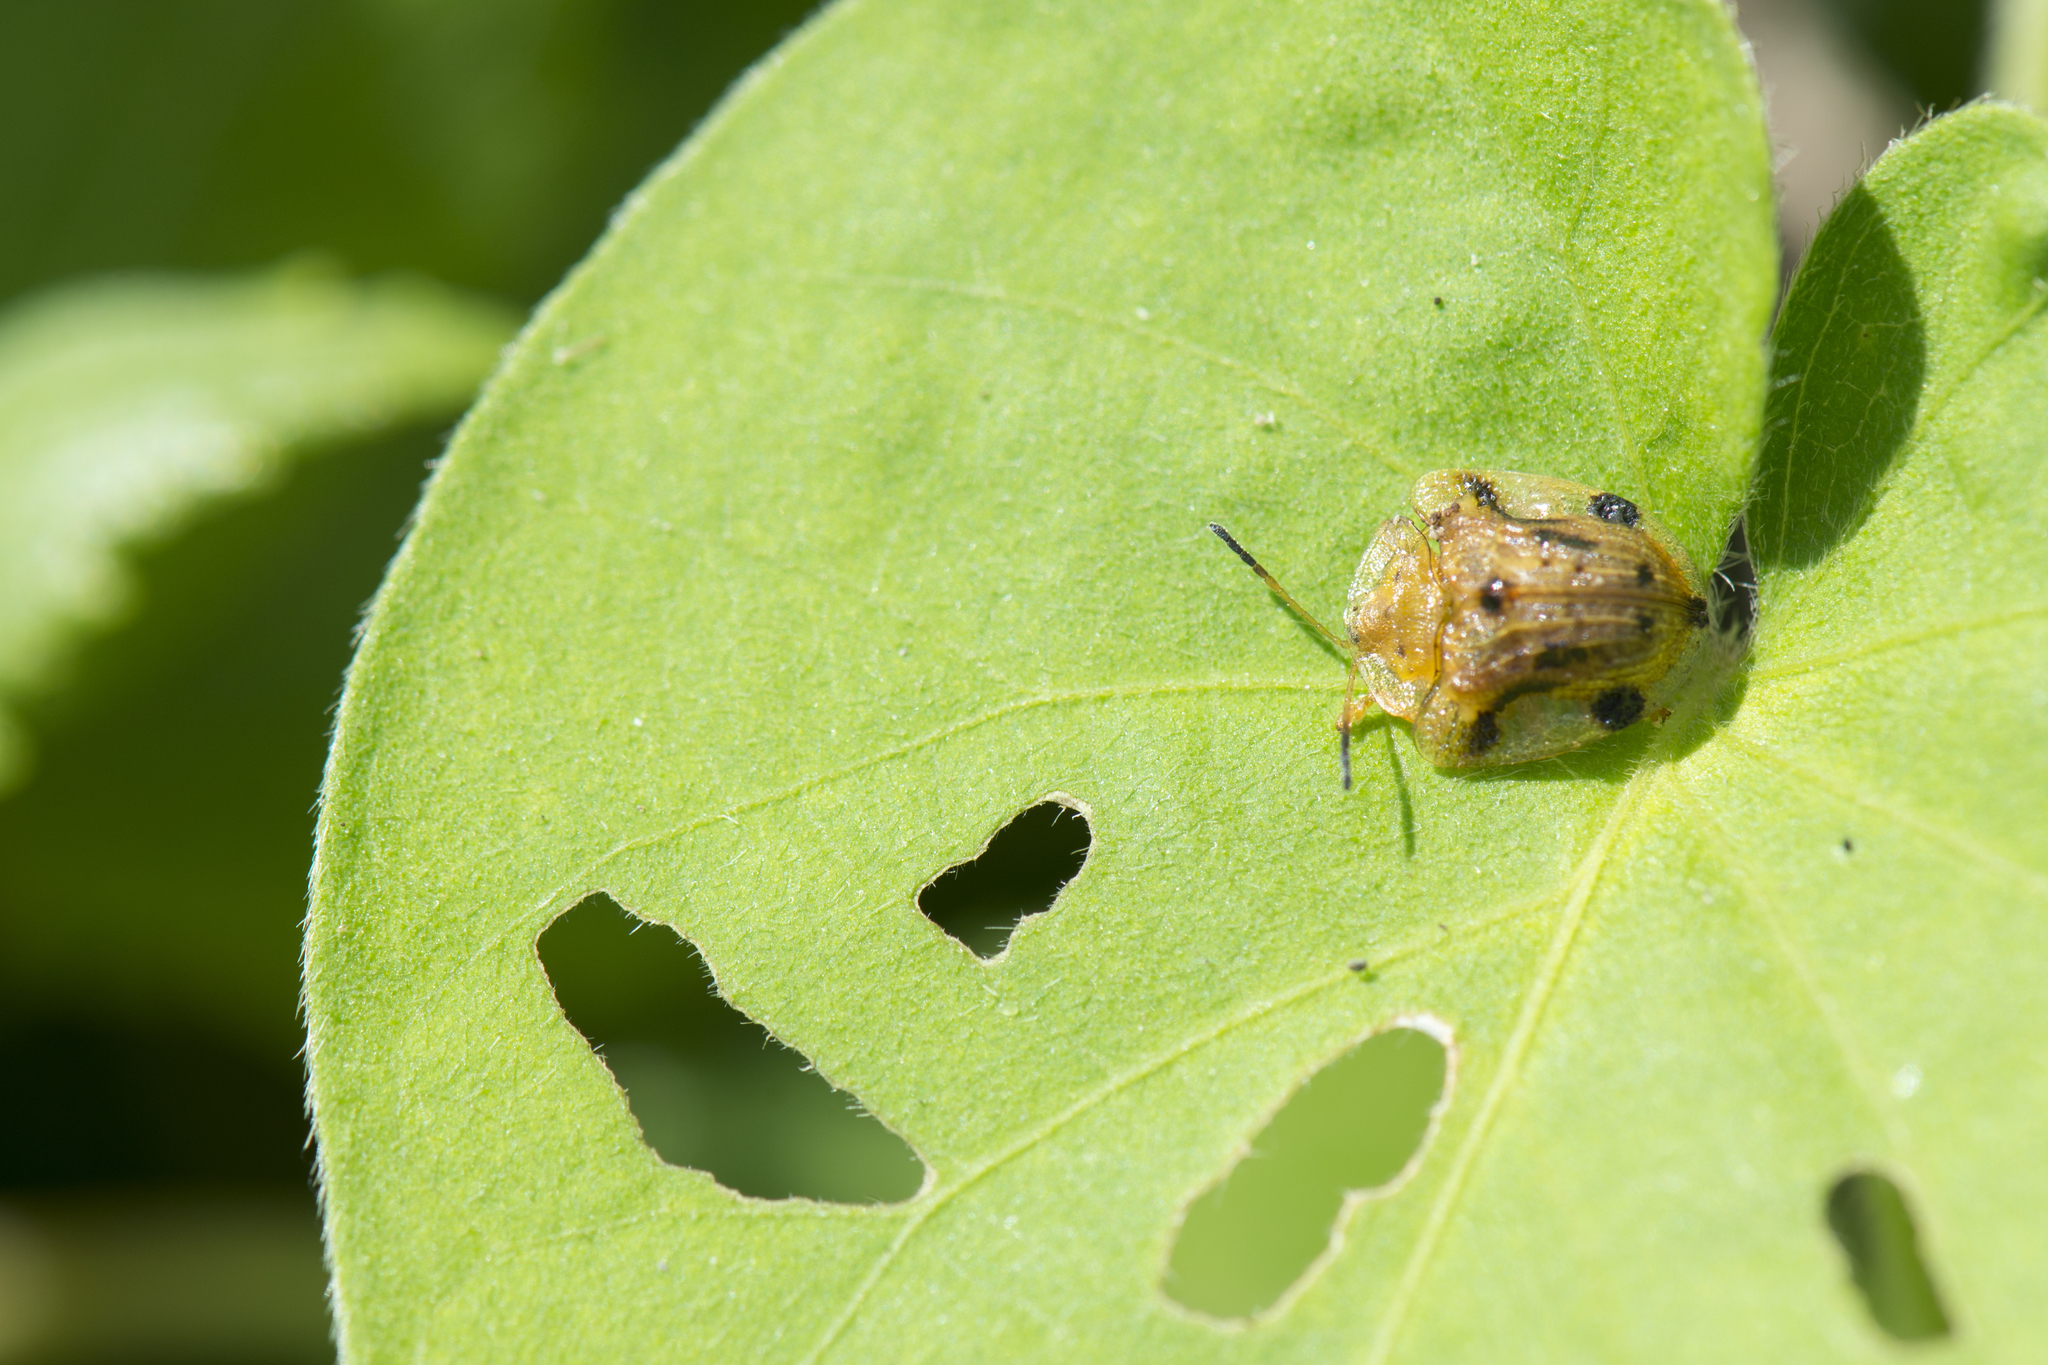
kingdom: Animalia
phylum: Arthropoda
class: Insecta
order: Coleoptera
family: Chrysomelidae
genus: Laccoptera
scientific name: Laccoptera nepalensis
